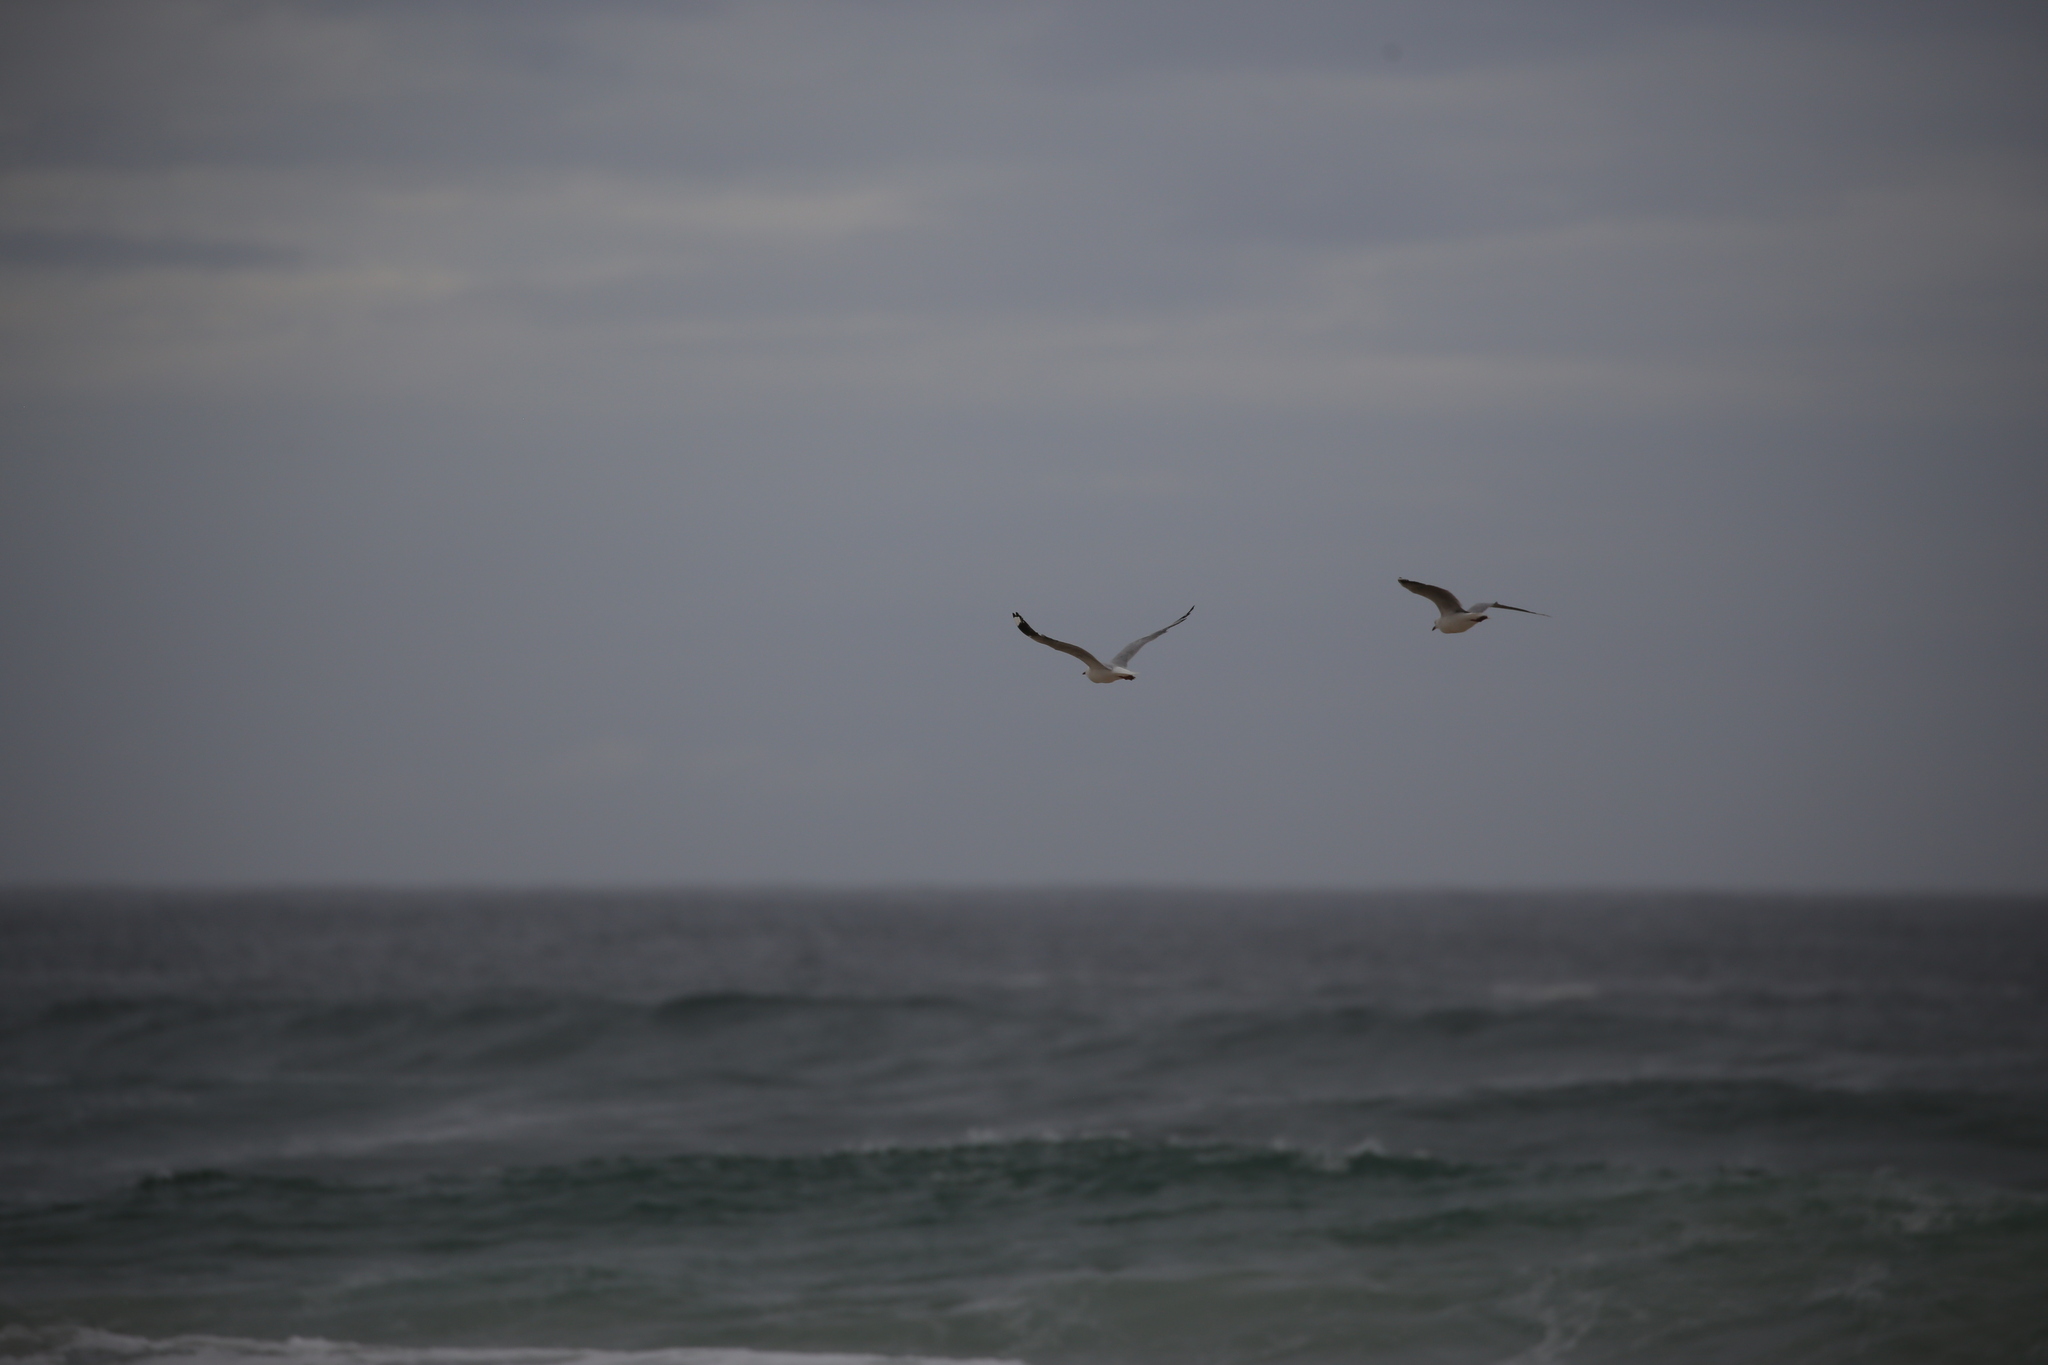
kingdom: Animalia
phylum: Chordata
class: Aves
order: Charadriiformes
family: Laridae
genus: Chroicocephalus
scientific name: Chroicocephalus novaehollandiae
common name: Silver gull
